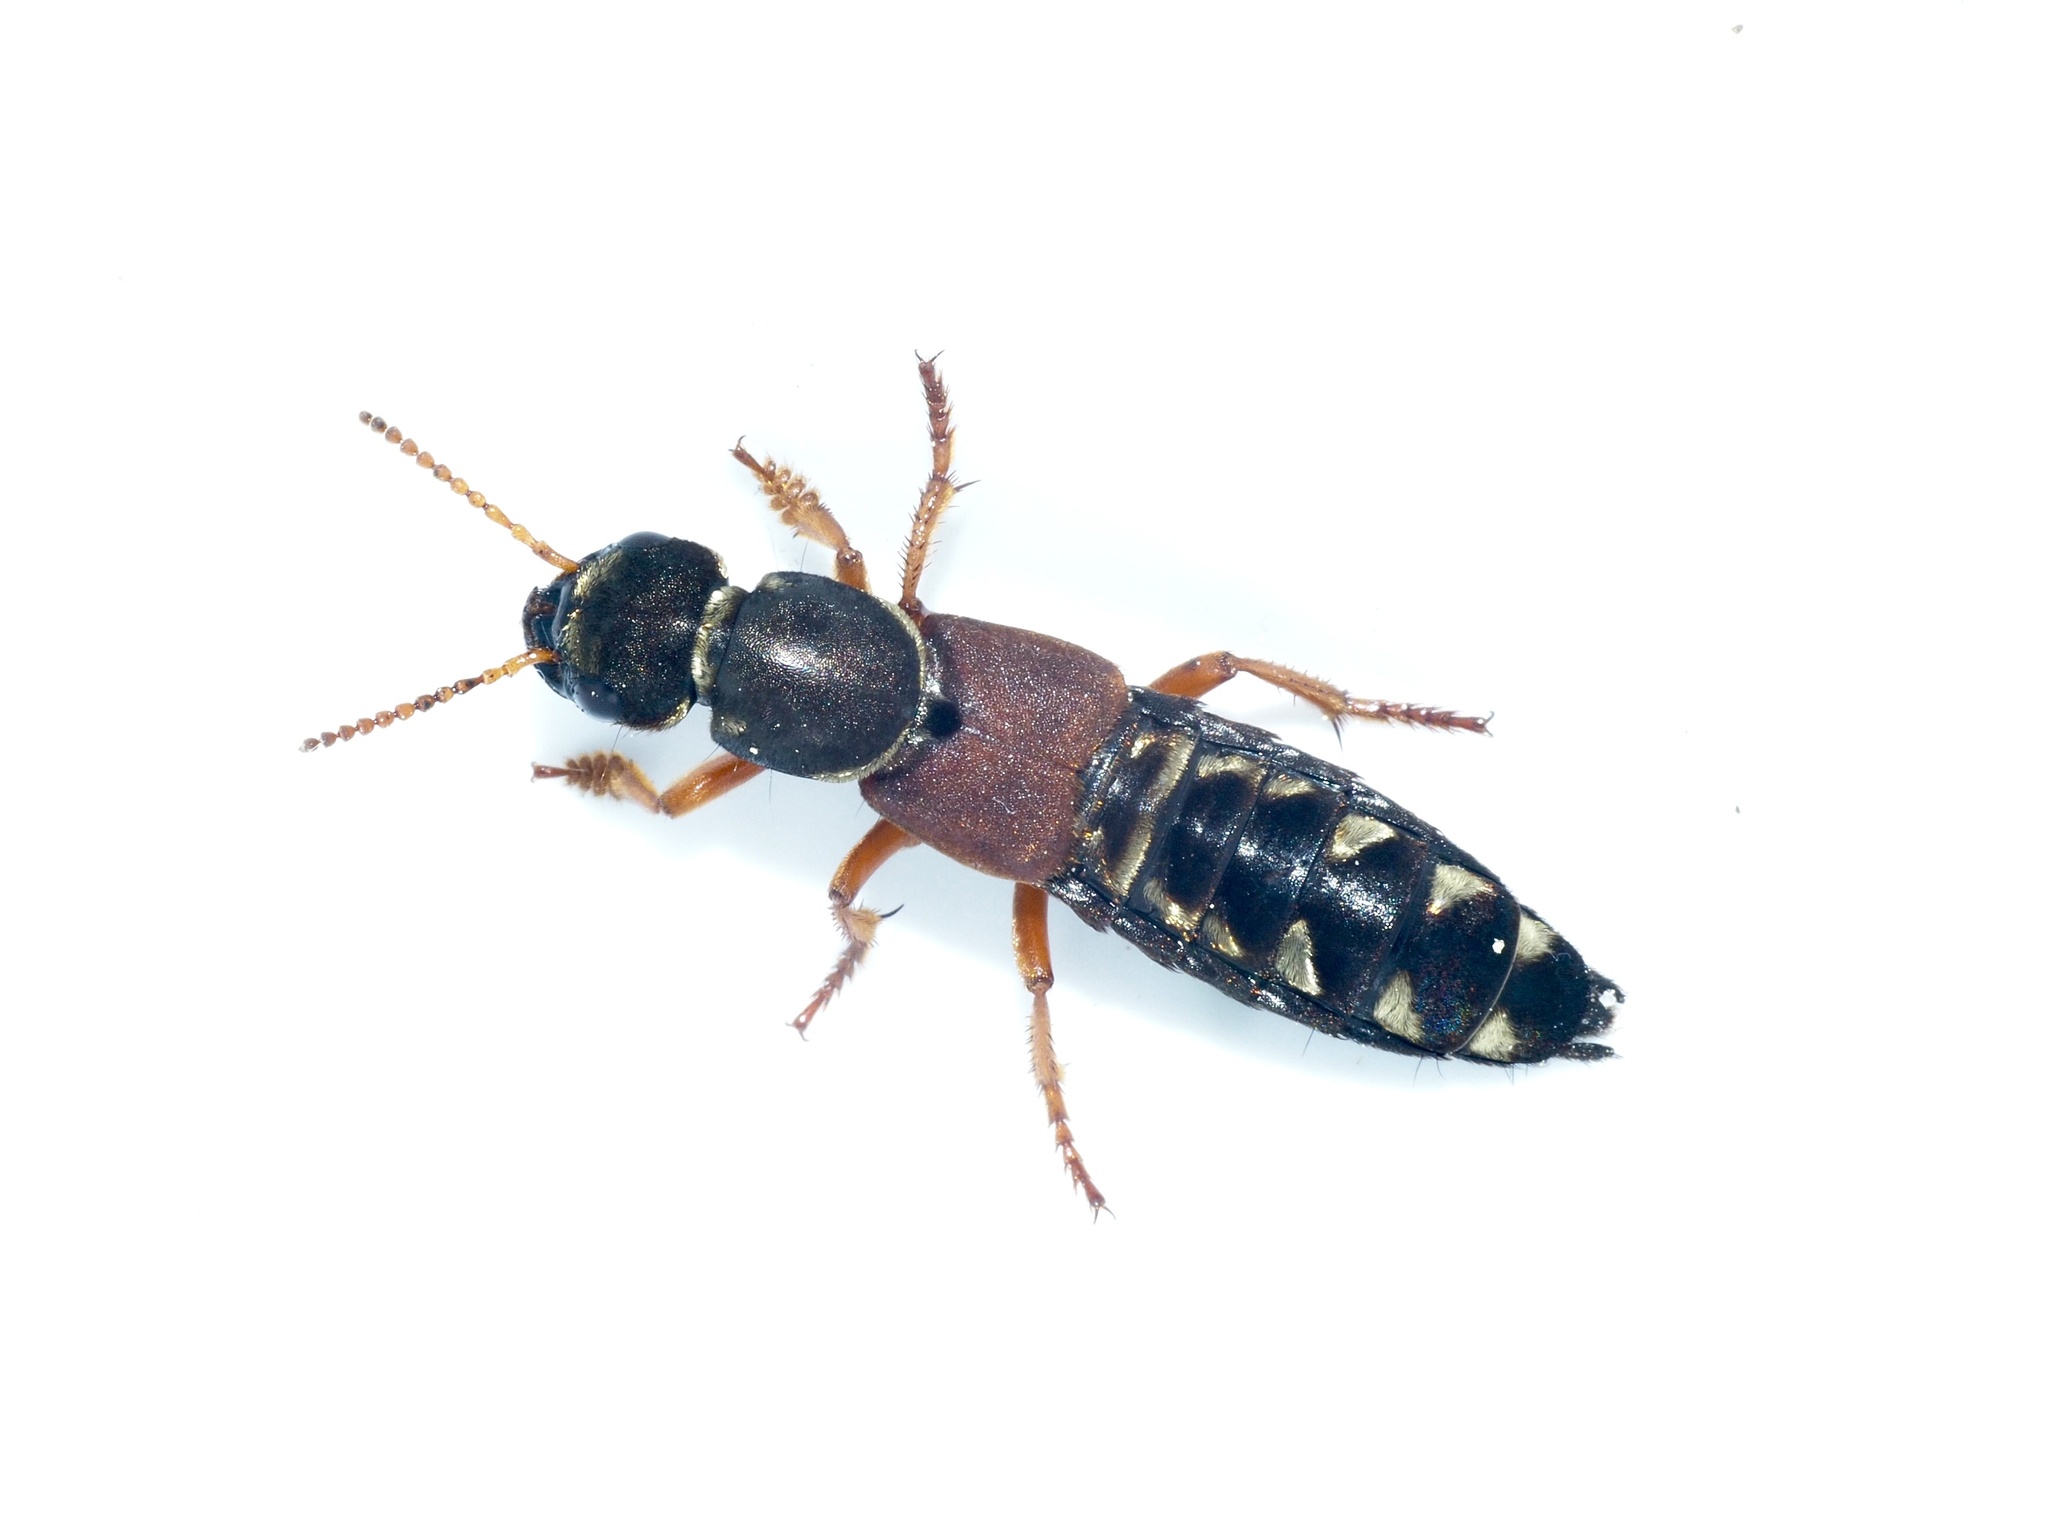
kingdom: Animalia
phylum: Arthropoda
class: Insecta
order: Coleoptera
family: Staphylinidae
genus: Staphylinus
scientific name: Staphylinus caesareus
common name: Staph beetle
